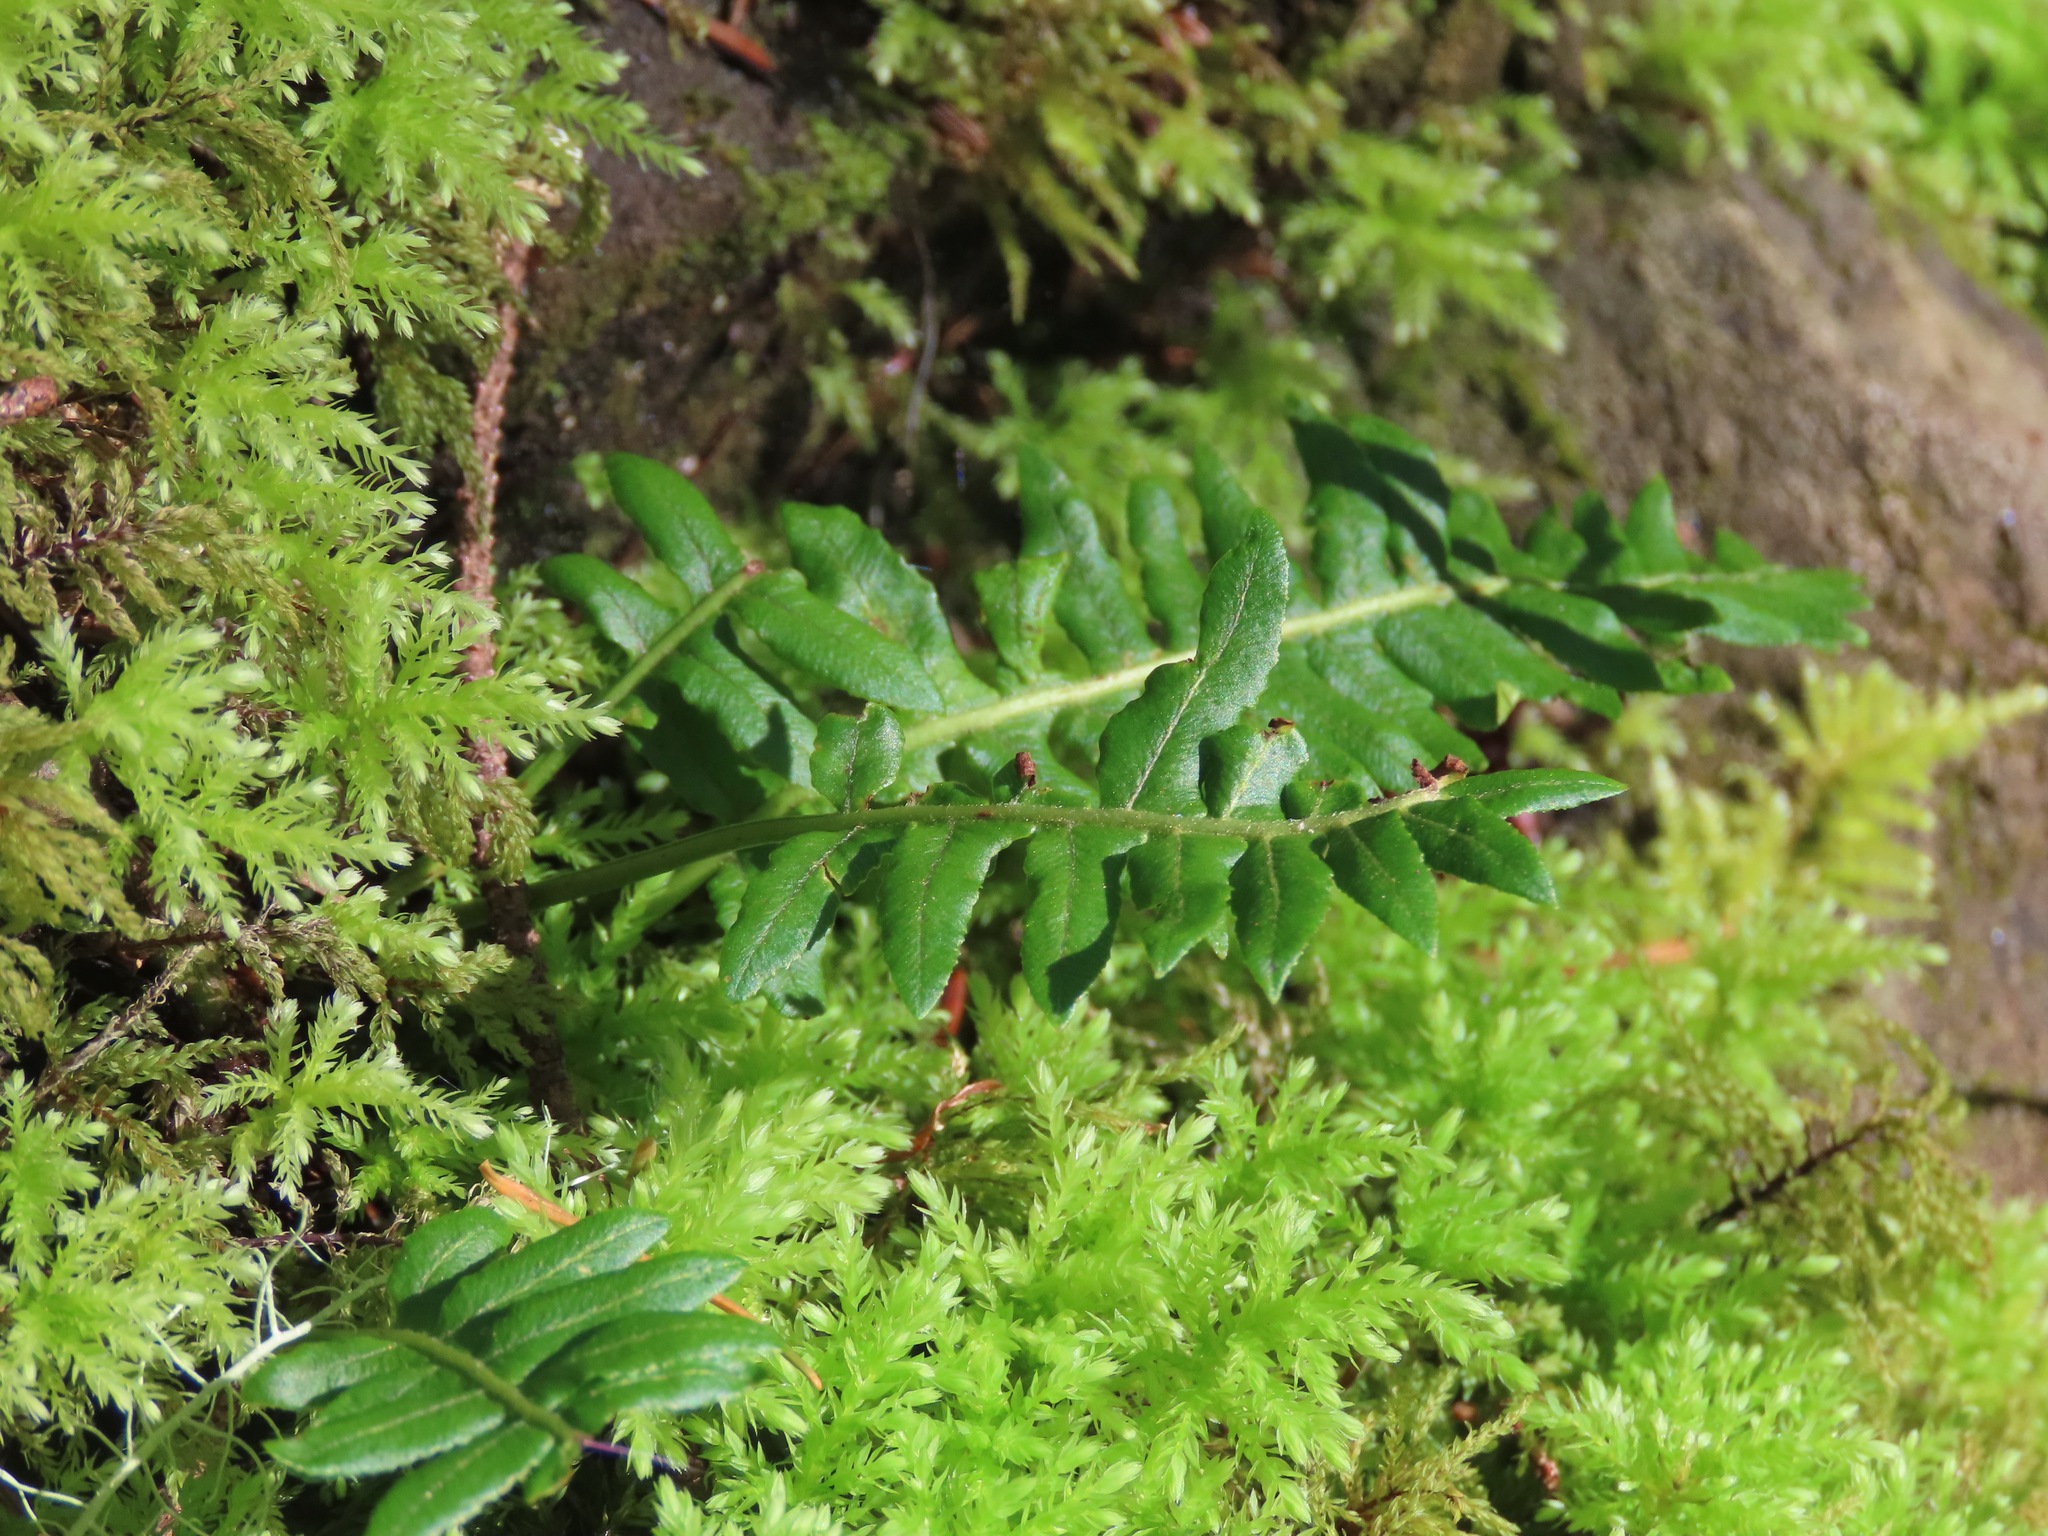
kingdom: Plantae
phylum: Tracheophyta
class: Polypodiopsida
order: Polypodiales
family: Polypodiaceae
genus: Polypodium
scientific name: Polypodium glycyrrhiza
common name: Licorice fern
